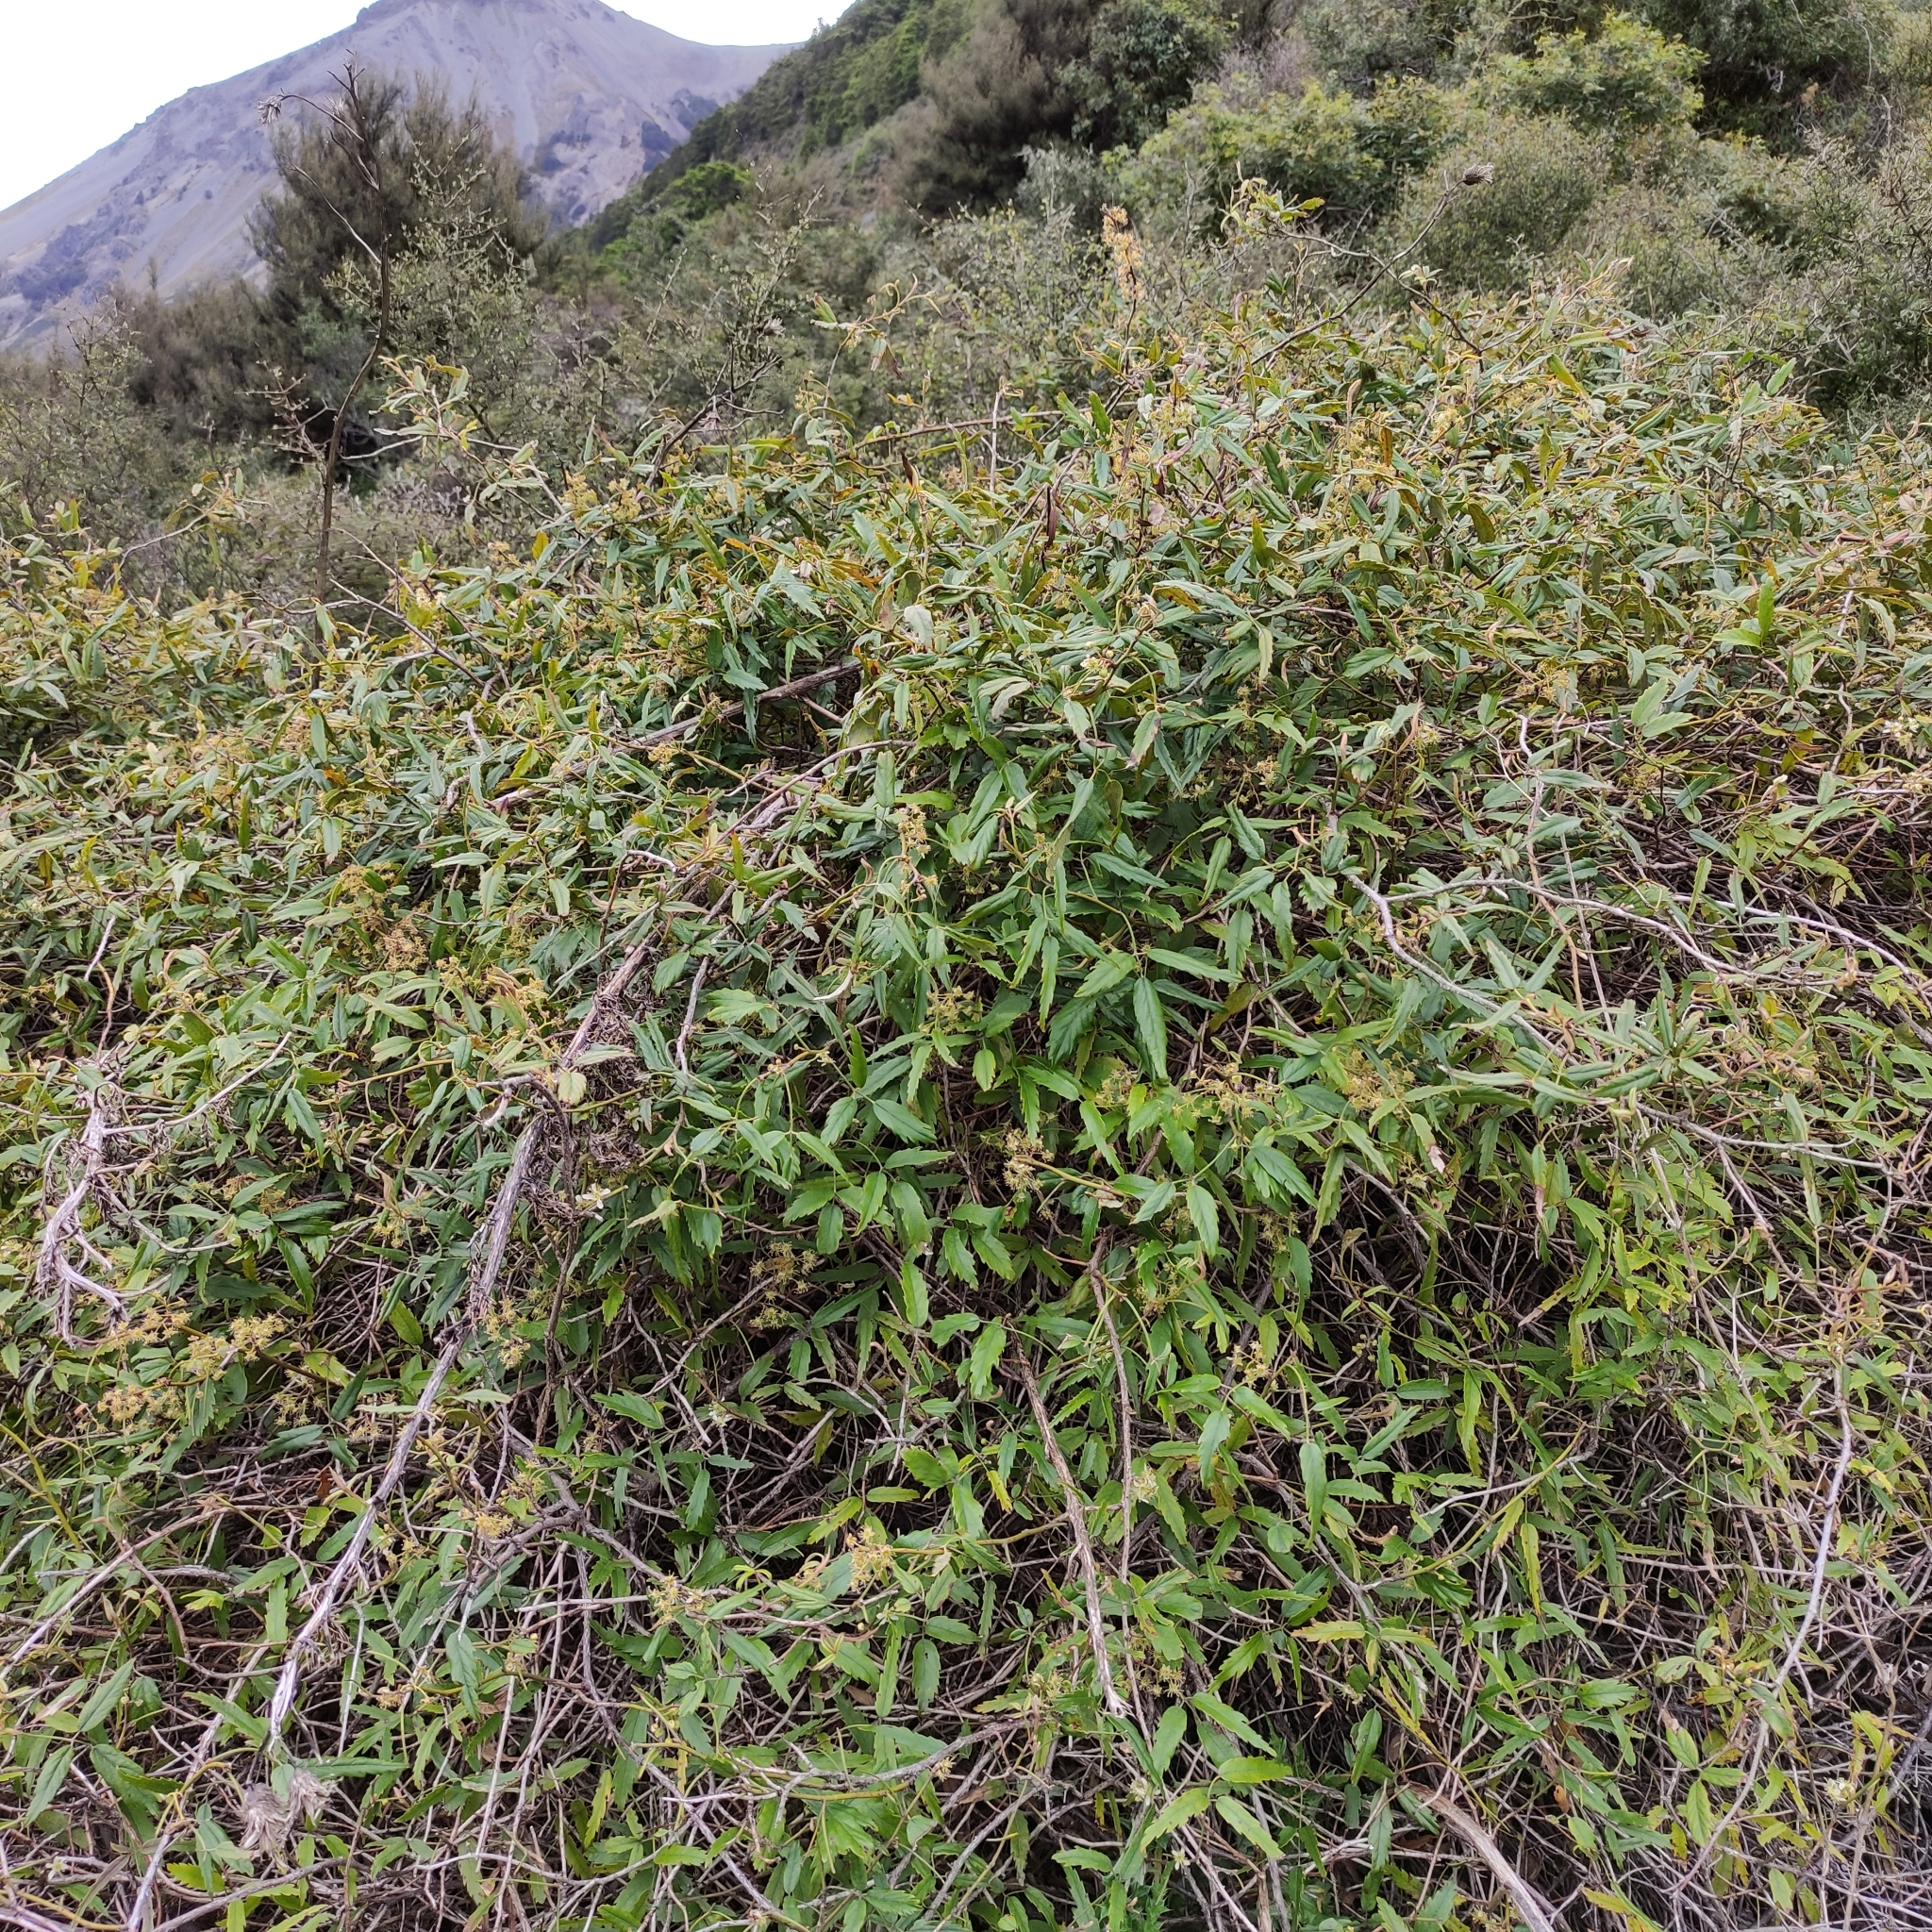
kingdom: Plantae
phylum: Tracheophyta
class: Magnoliopsida
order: Rosales
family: Rosaceae
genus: Rubus
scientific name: Rubus schmidelioides
